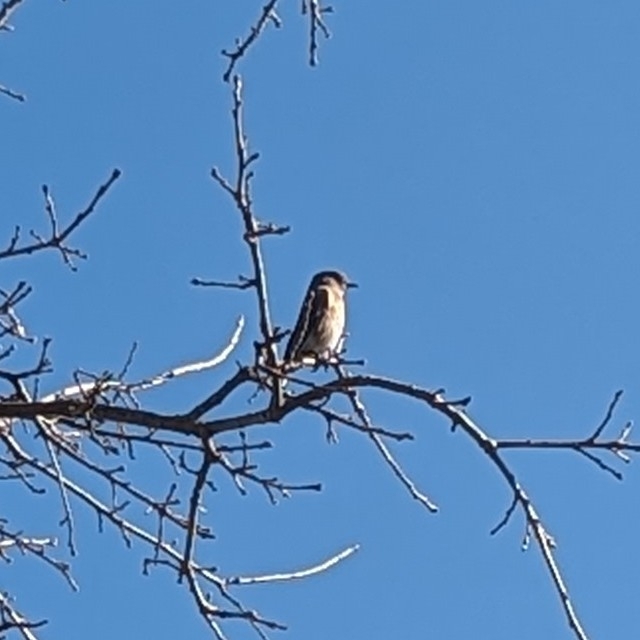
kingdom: Animalia
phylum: Chordata
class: Aves
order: Passeriformes
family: Turdidae
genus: Sialia
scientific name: Sialia mexicana
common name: Western bluebird
